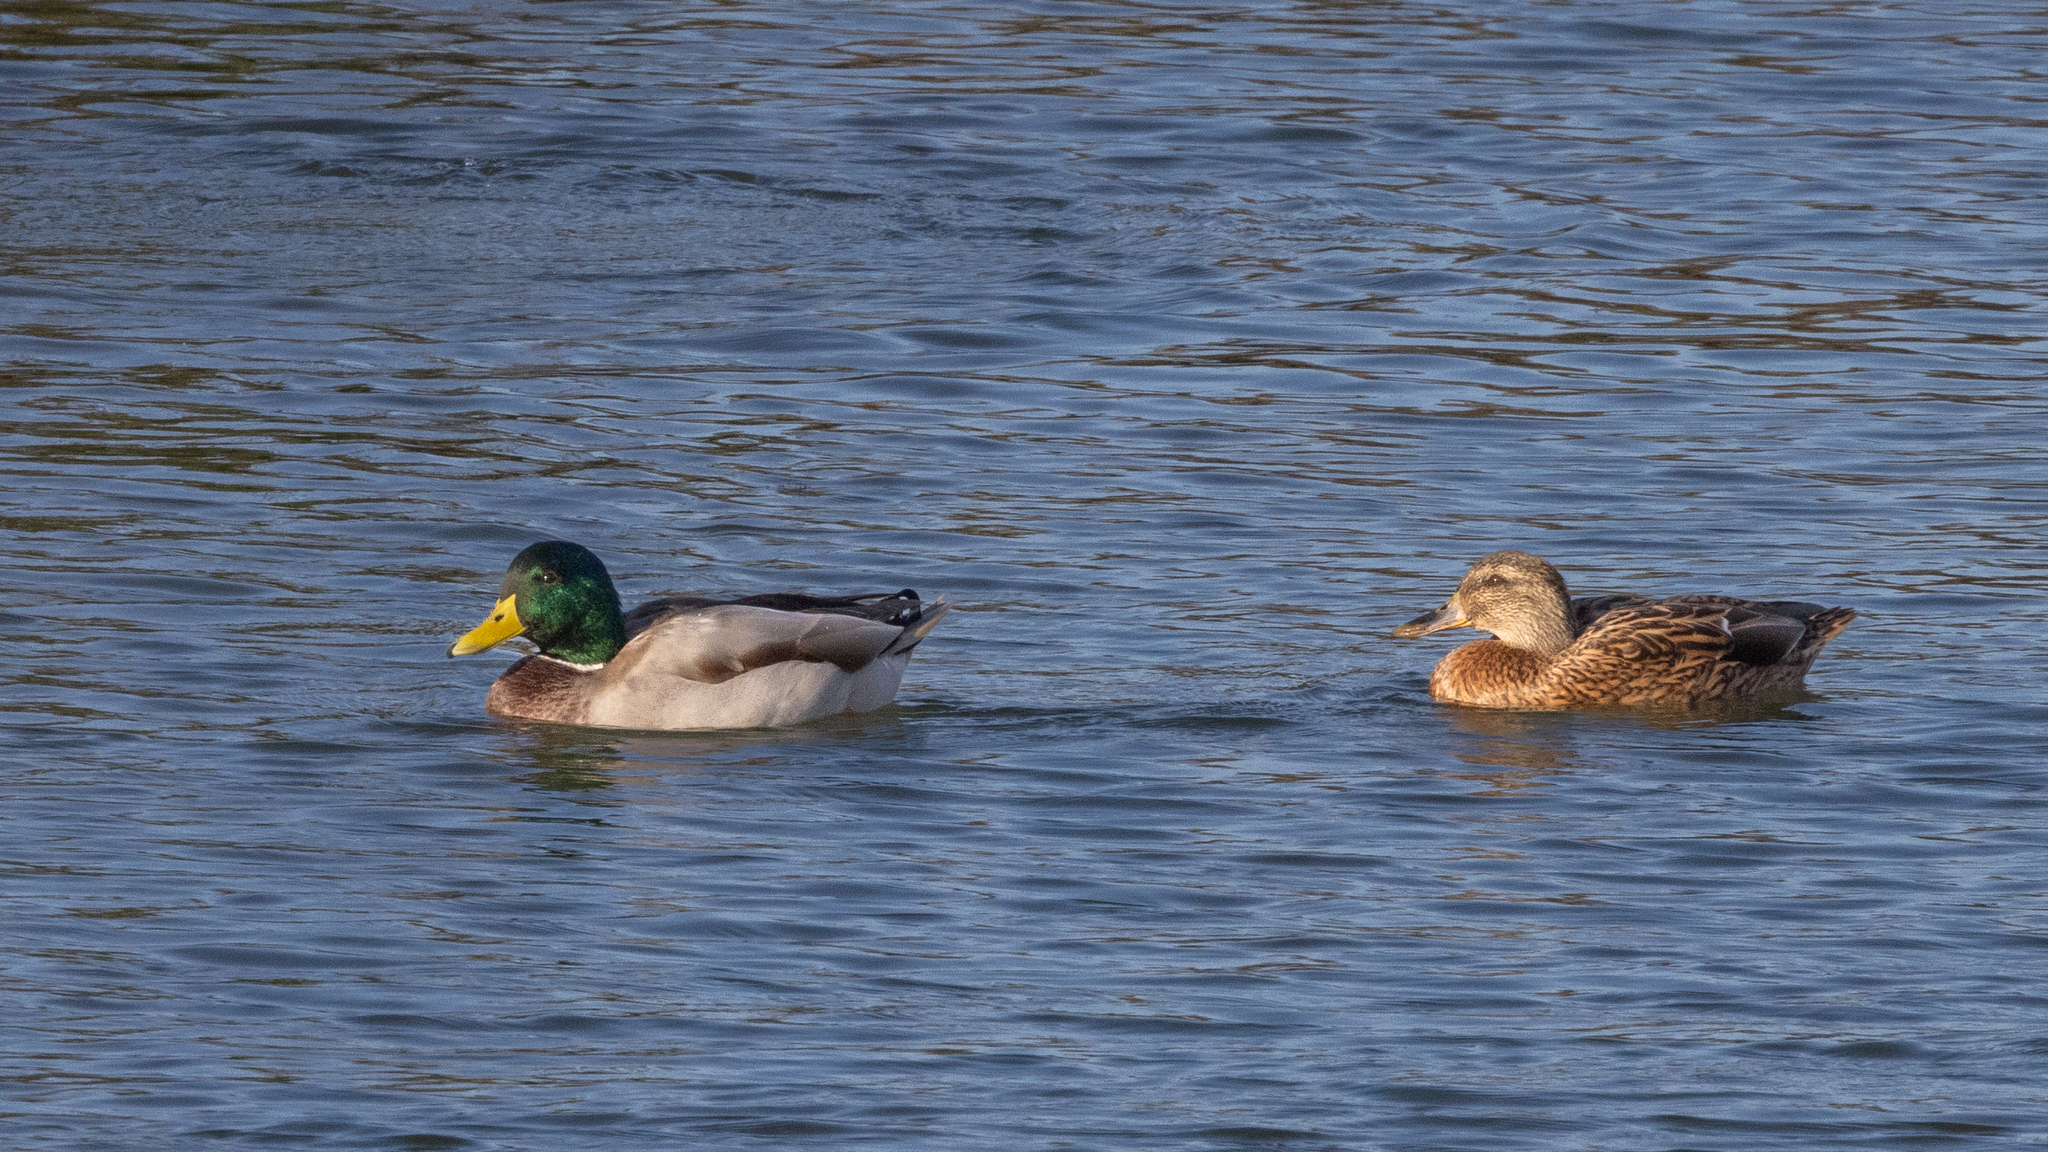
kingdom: Animalia
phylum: Chordata
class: Aves
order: Anseriformes
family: Anatidae
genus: Anas
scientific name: Anas platyrhynchos
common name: Mallard
